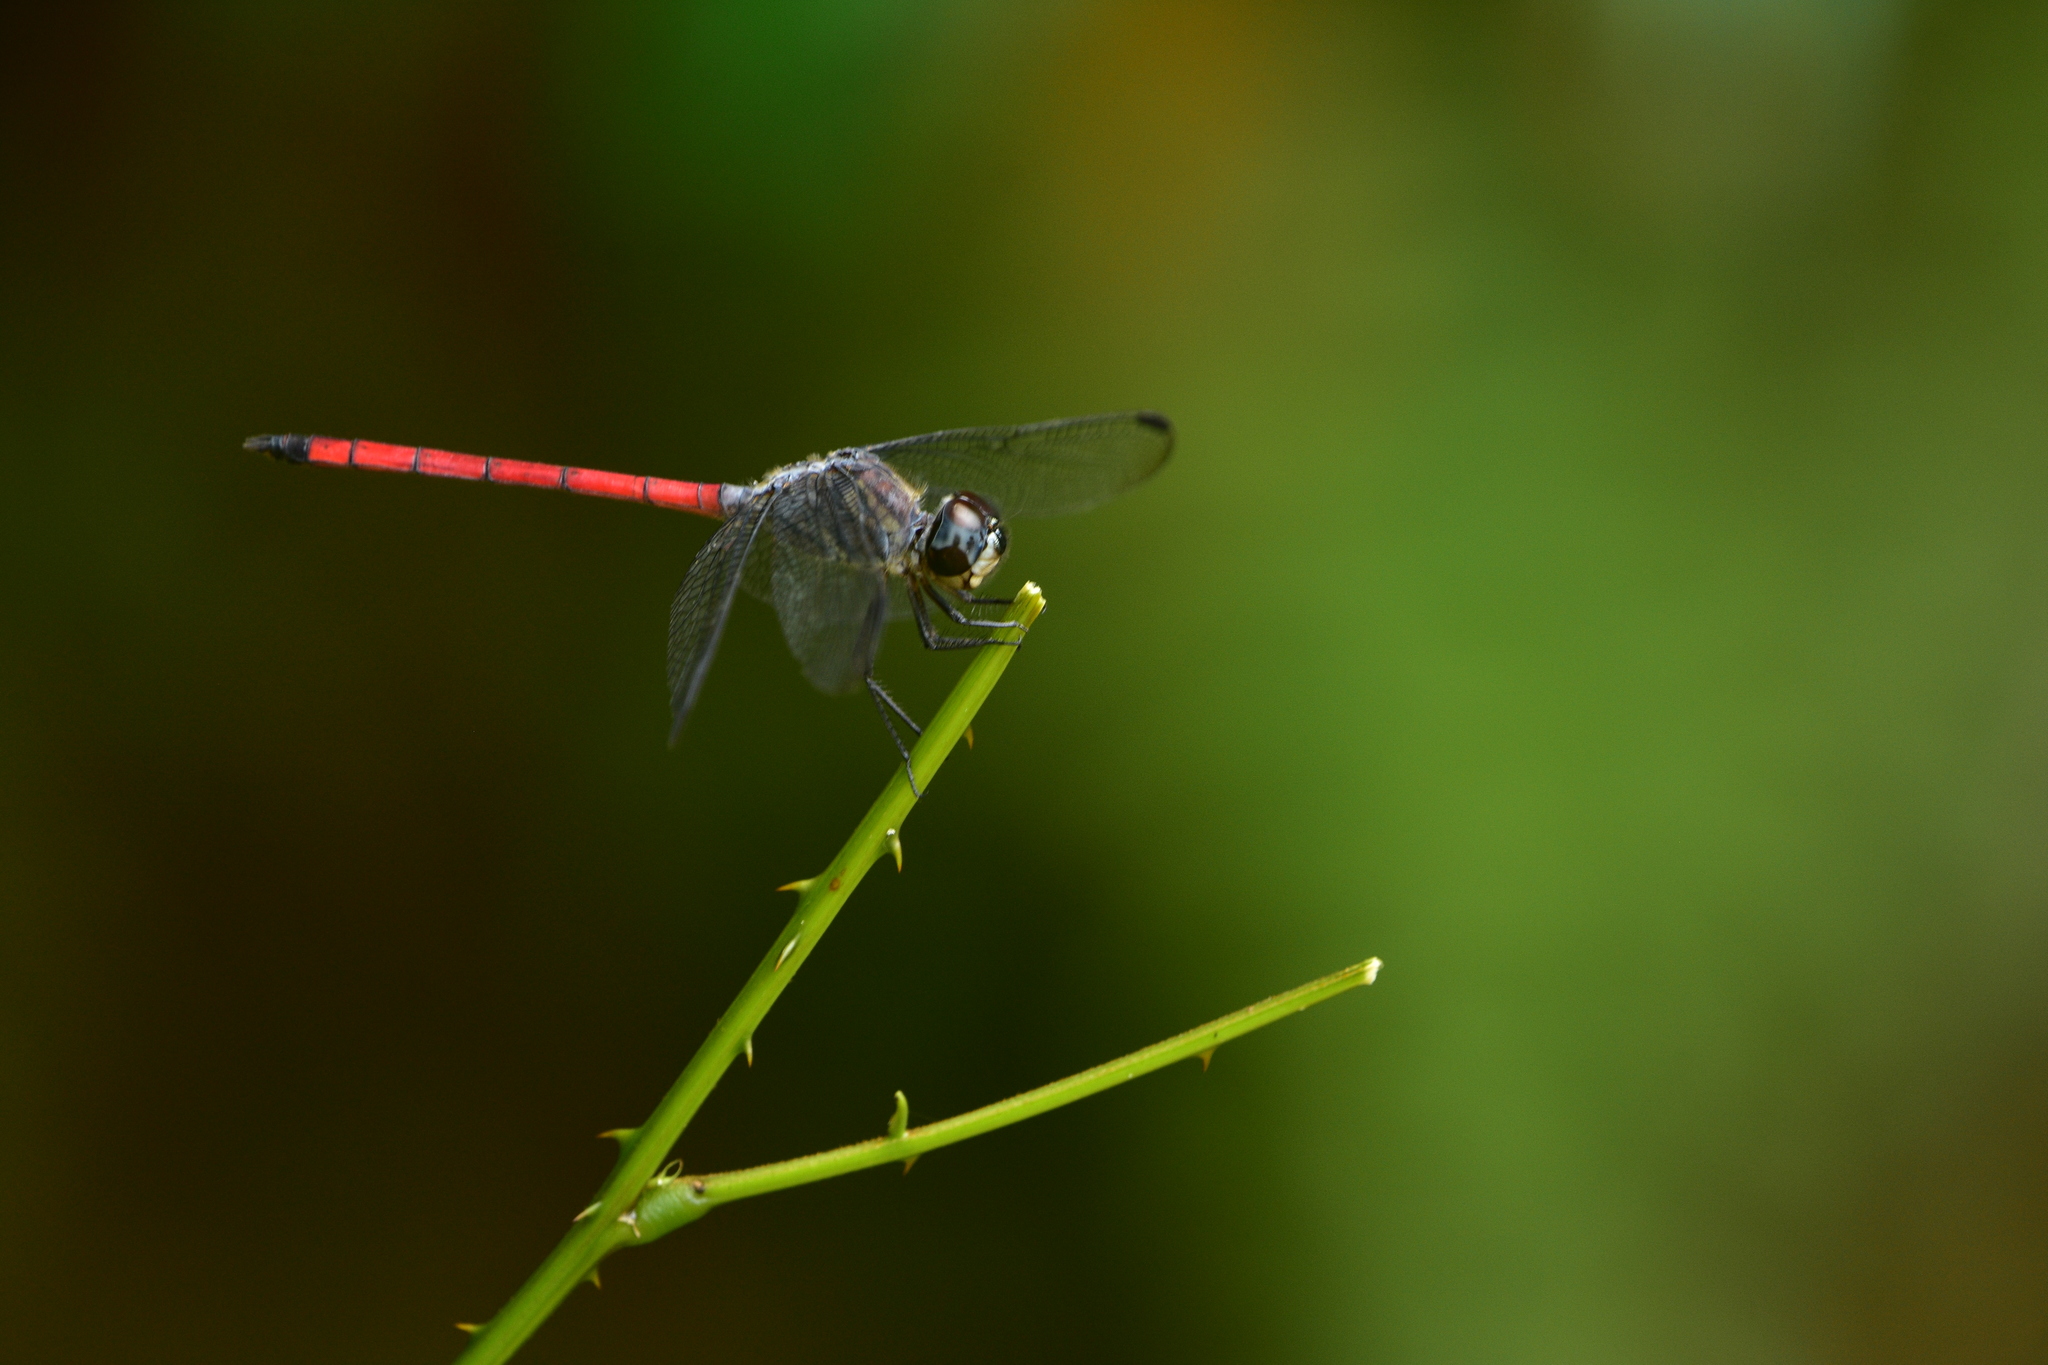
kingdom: Animalia
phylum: Arthropoda
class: Insecta
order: Odonata
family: Libellulidae
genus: Lathrecista
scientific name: Lathrecista asiatica
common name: Scarlet grenadier
